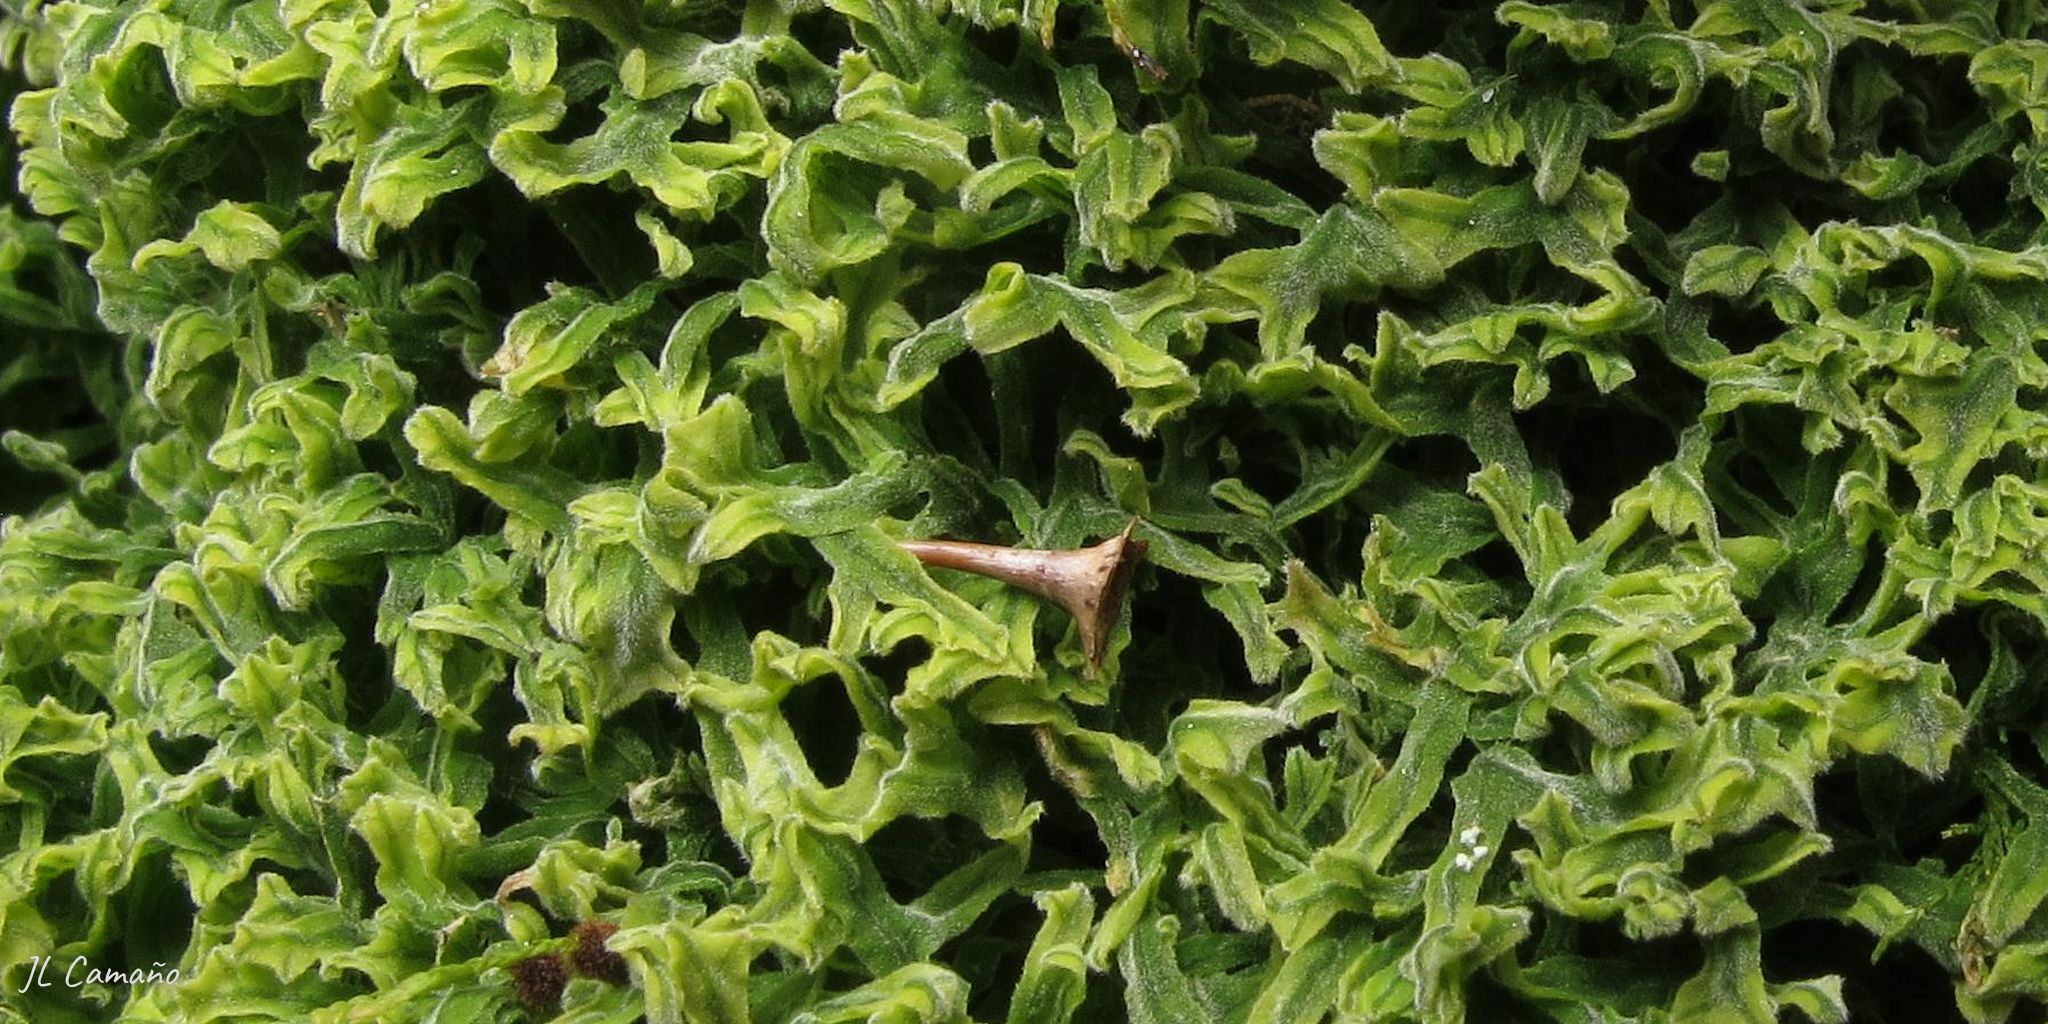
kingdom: Plantae
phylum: Marchantiophyta
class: Jungermanniopsida
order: Metzgeriales
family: Metzgeriaceae
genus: Metzgeria
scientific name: Metzgeria pubescens
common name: Downy veilwort
